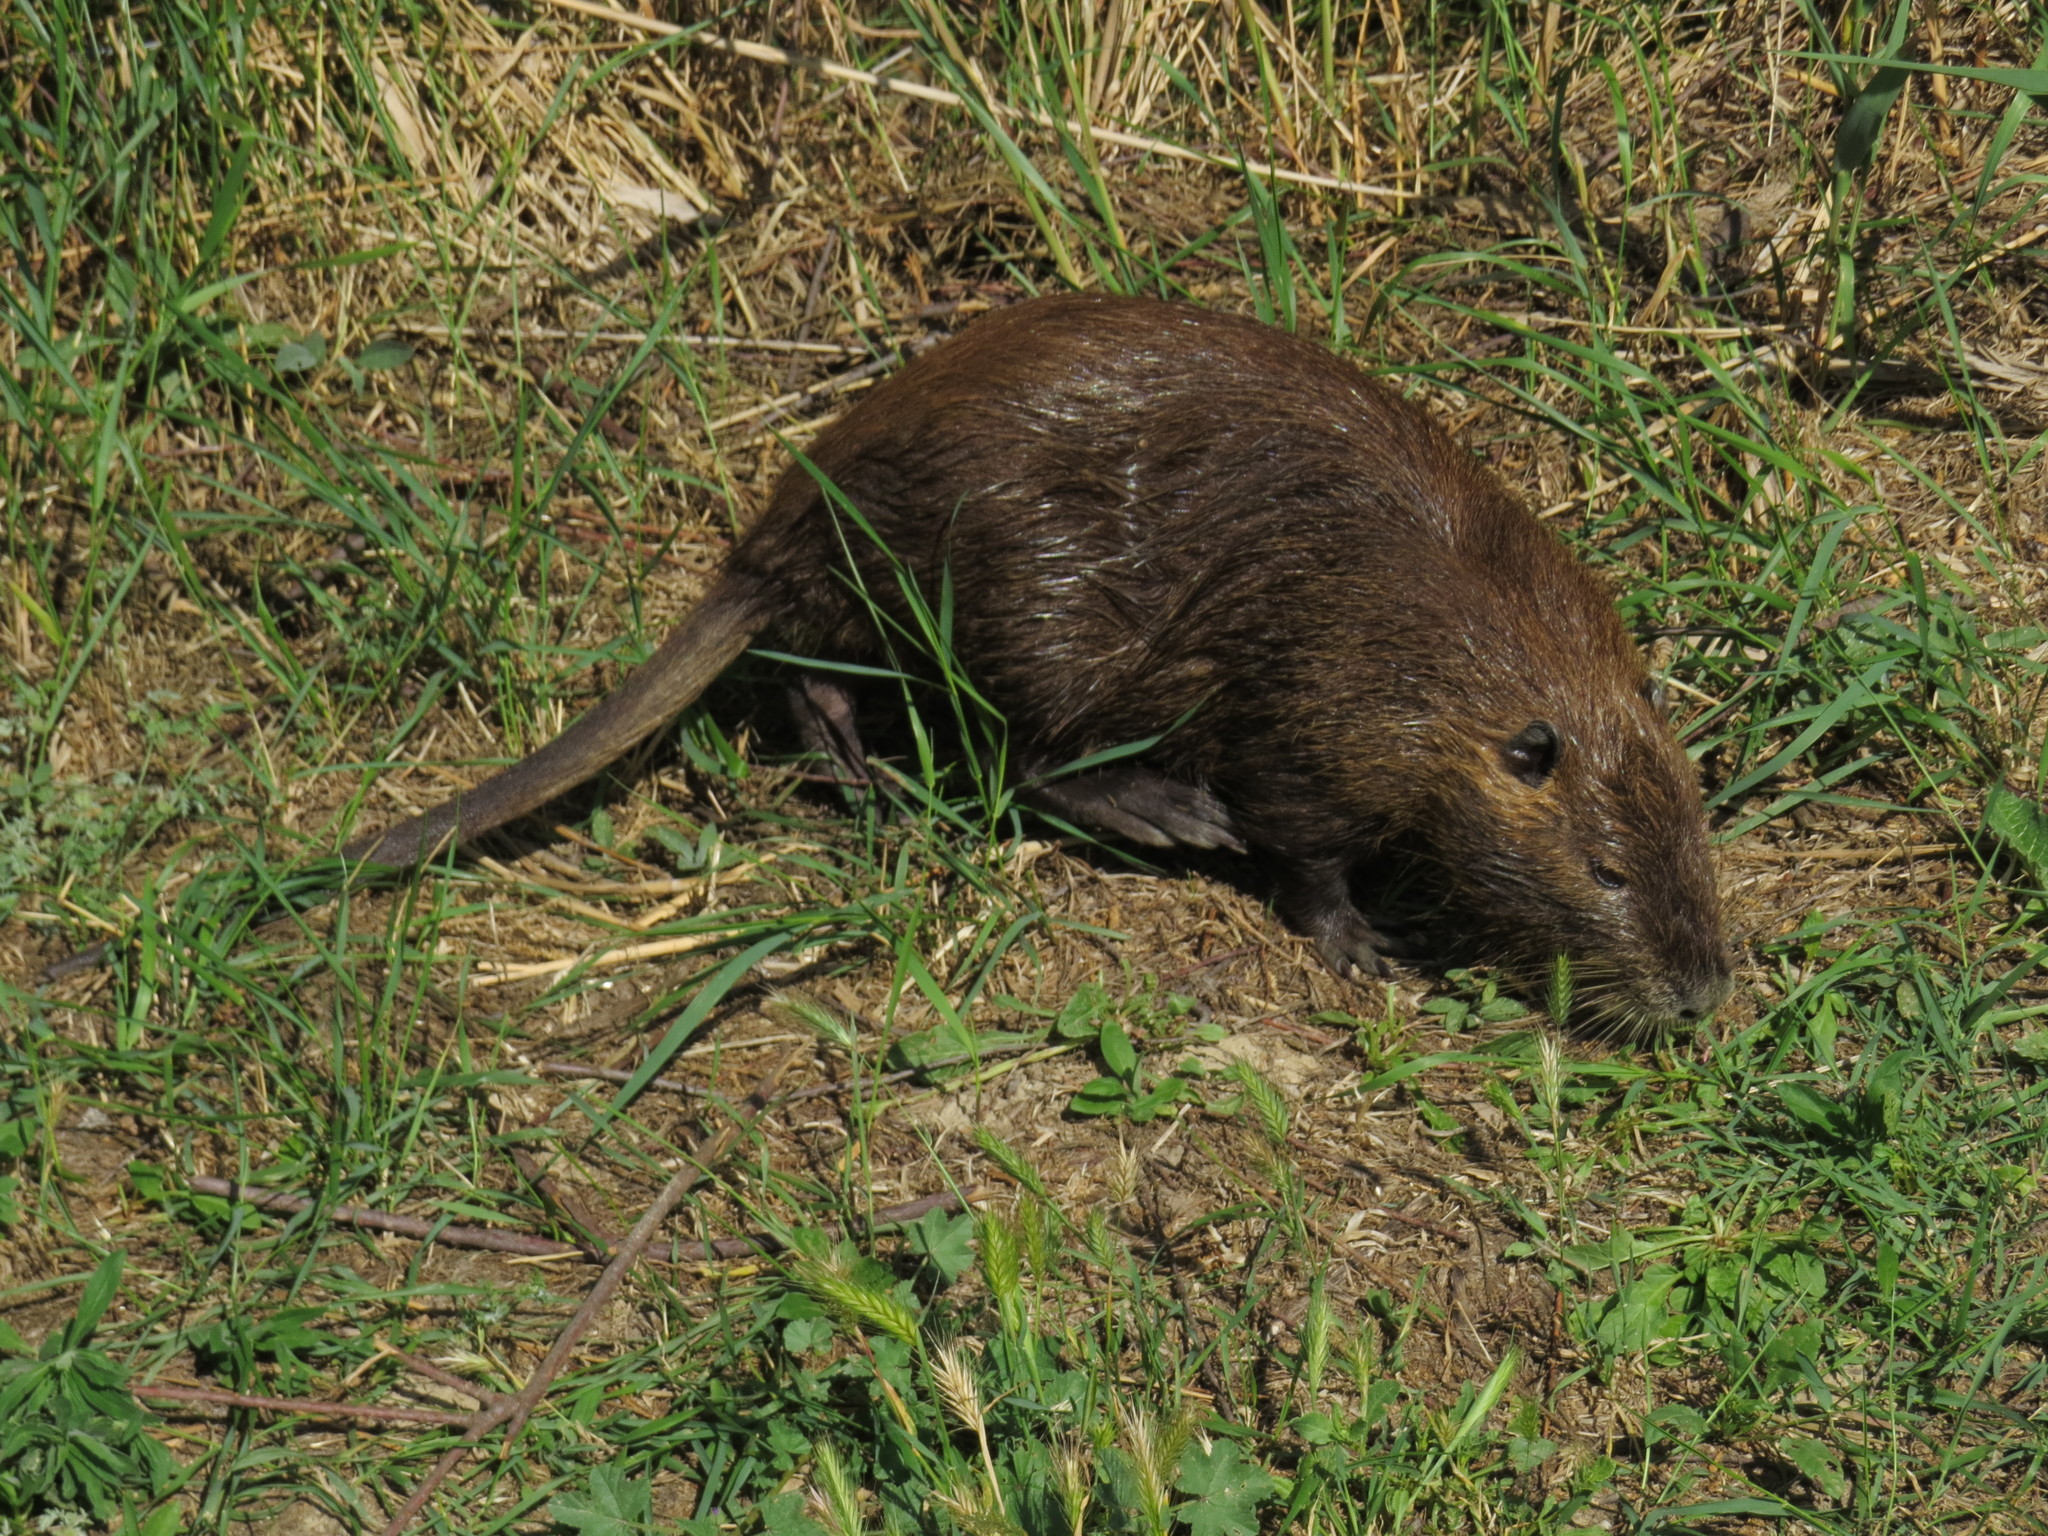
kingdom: Animalia
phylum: Chordata
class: Mammalia
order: Rodentia
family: Myocastoridae
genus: Myocastor
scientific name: Myocastor coypus
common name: Coypu
